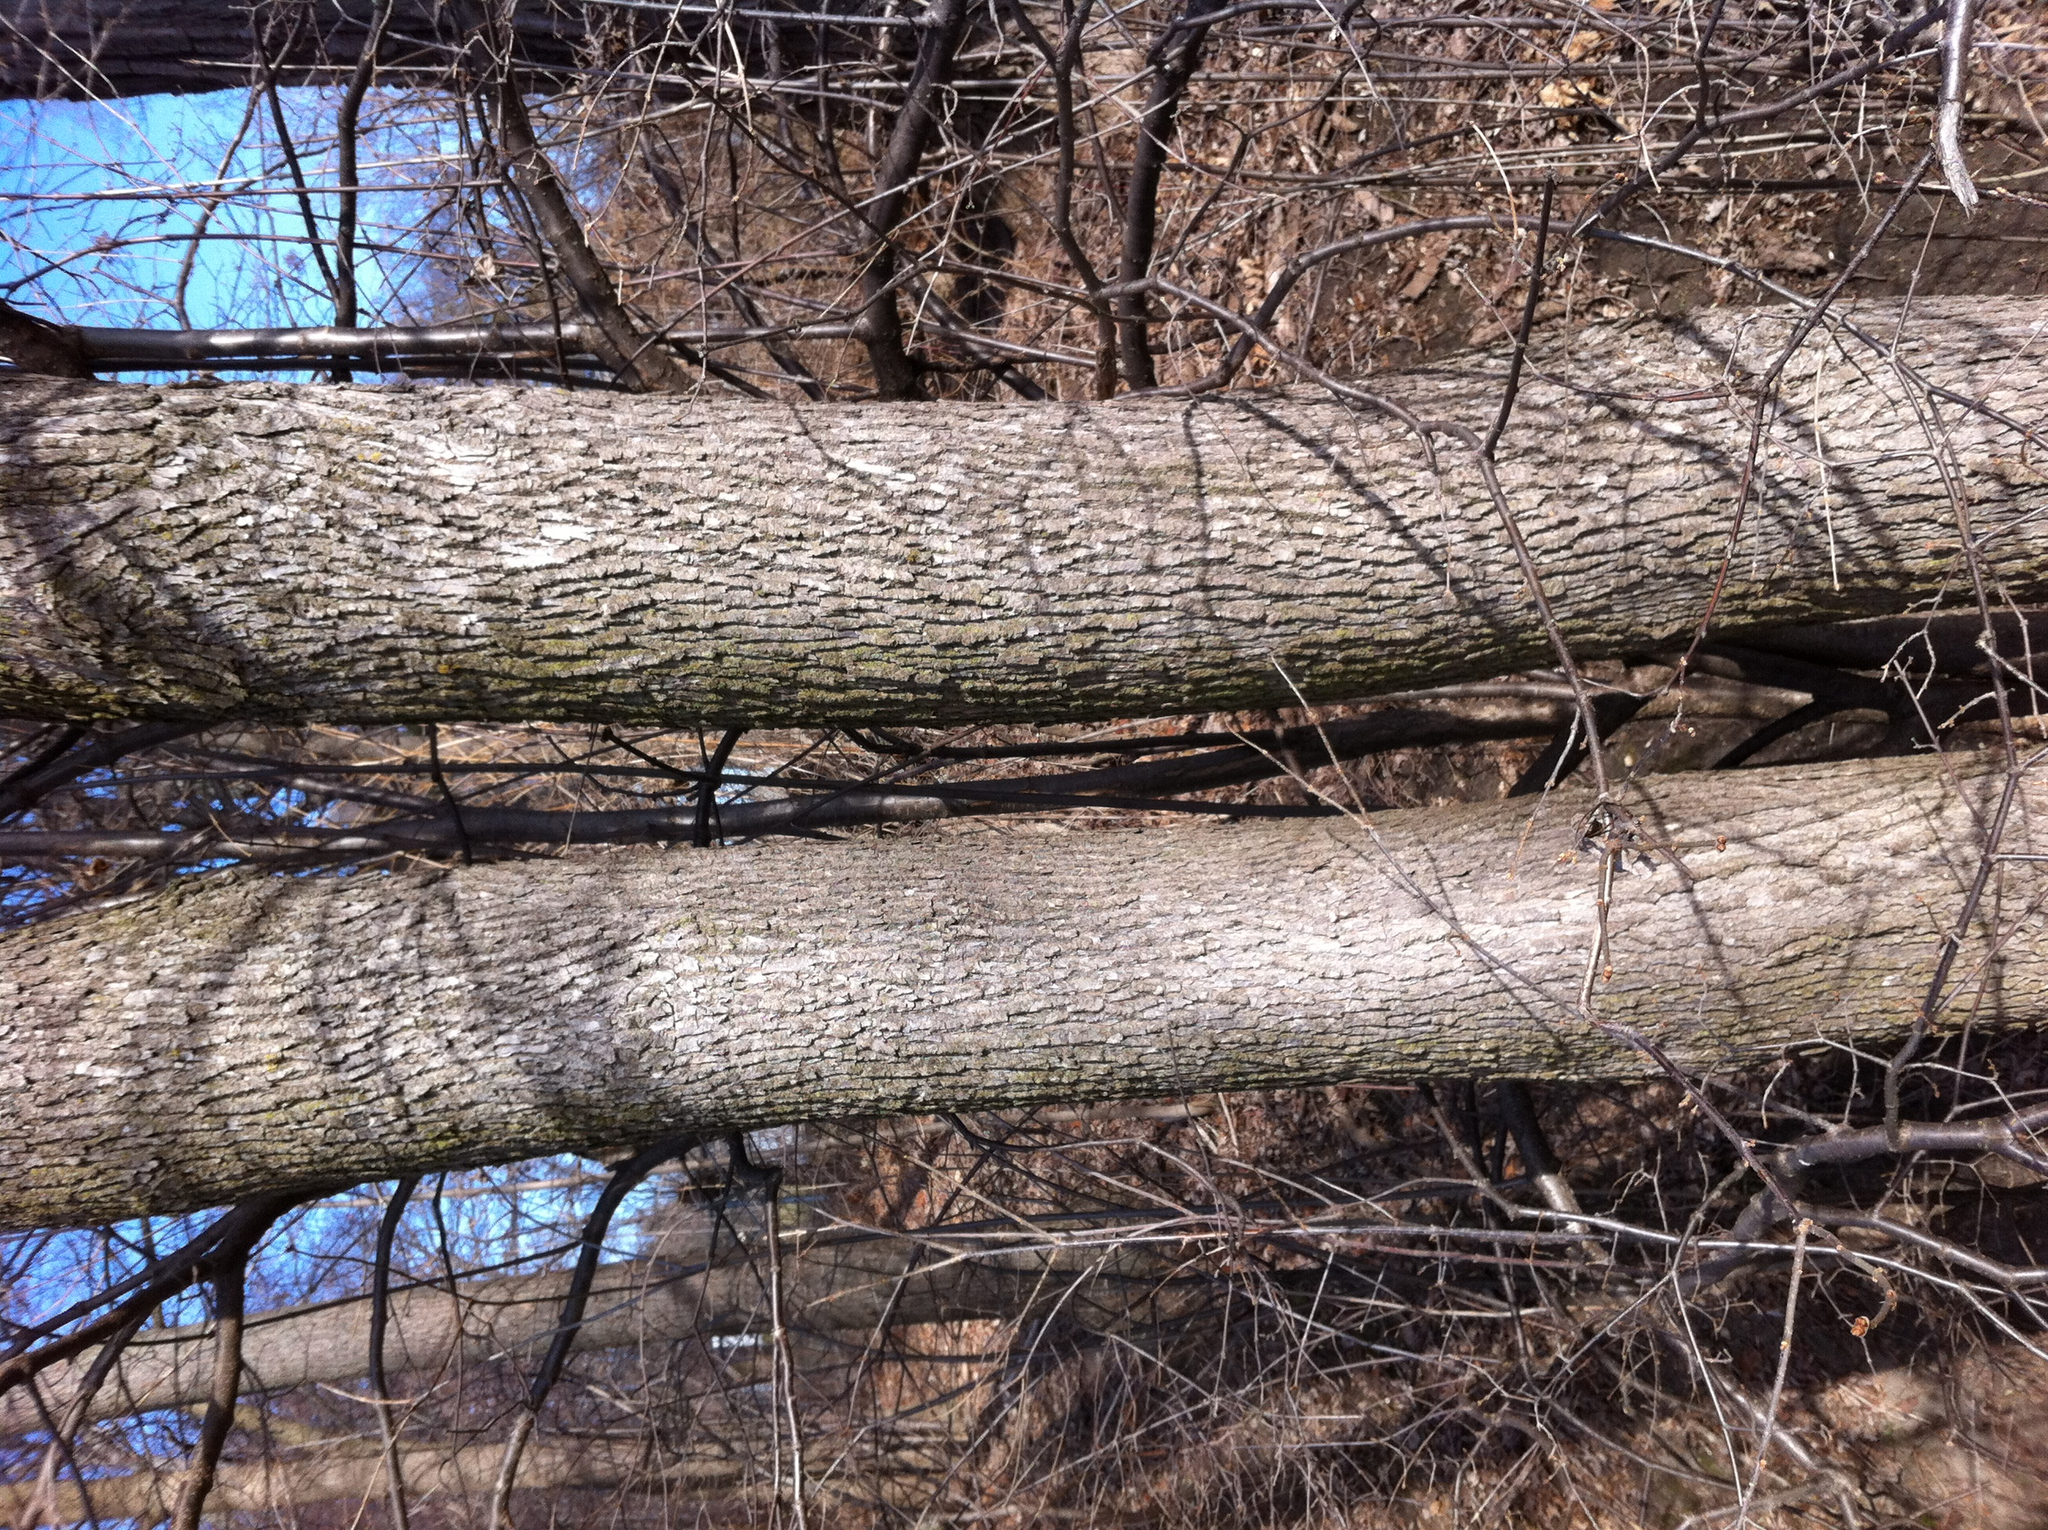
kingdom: Plantae
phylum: Tracheophyta
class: Magnoliopsida
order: Lamiales
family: Oleaceae
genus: Fraxinus
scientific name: Fraxinus americana
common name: White ash
